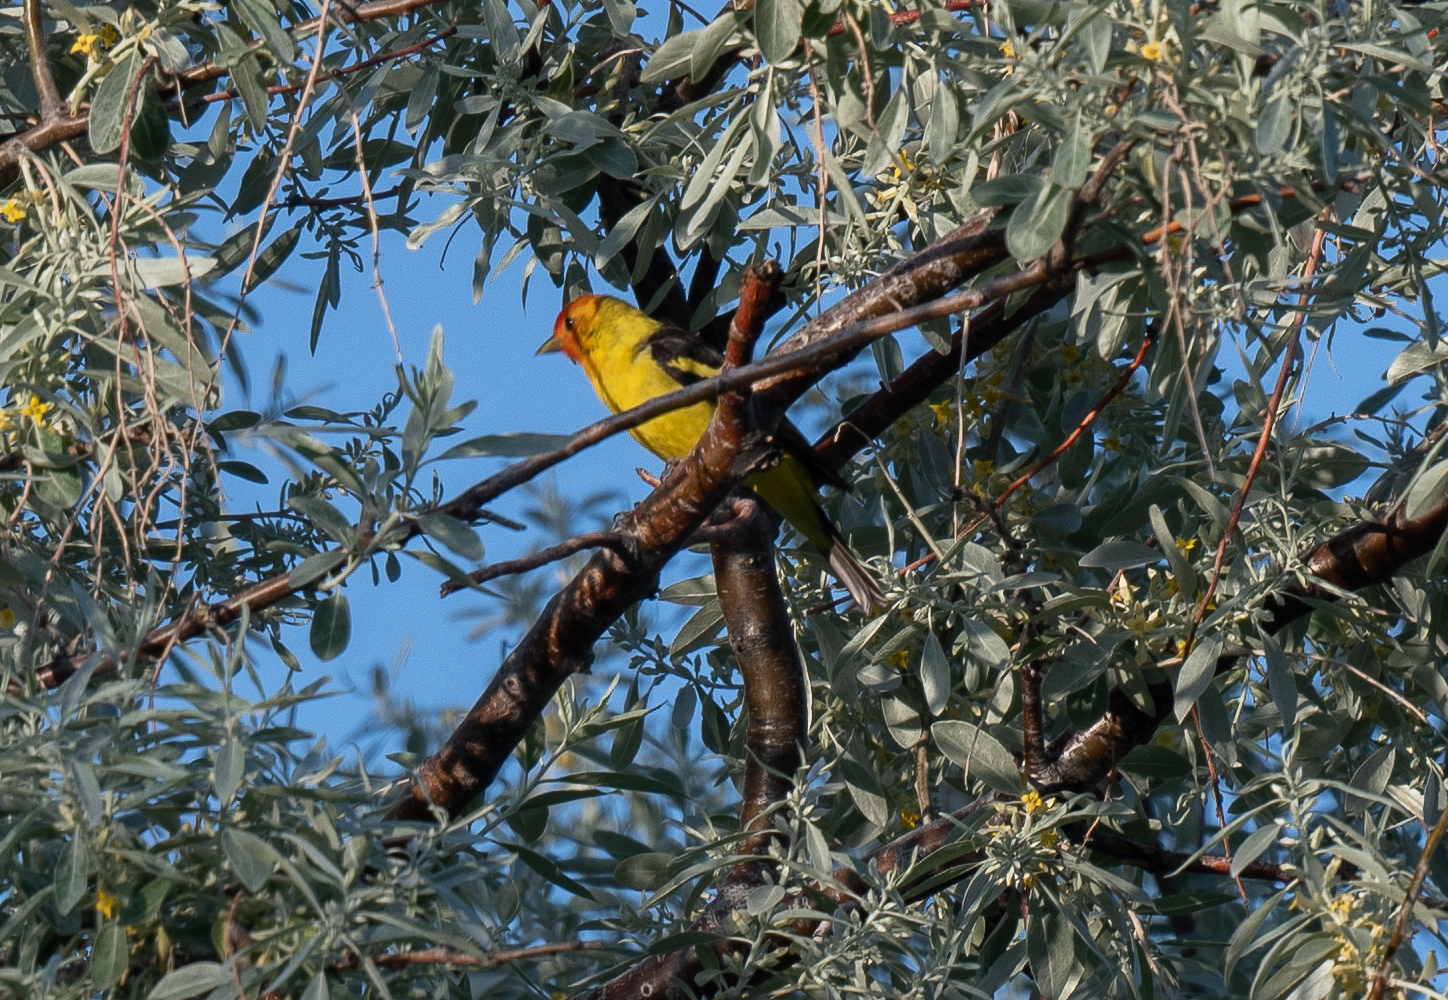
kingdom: Animalia
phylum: Chordata
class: Aves
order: Passeriformes
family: Cardinalidae
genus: Piranga
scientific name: Piranga ludoviciana
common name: Western tanager
